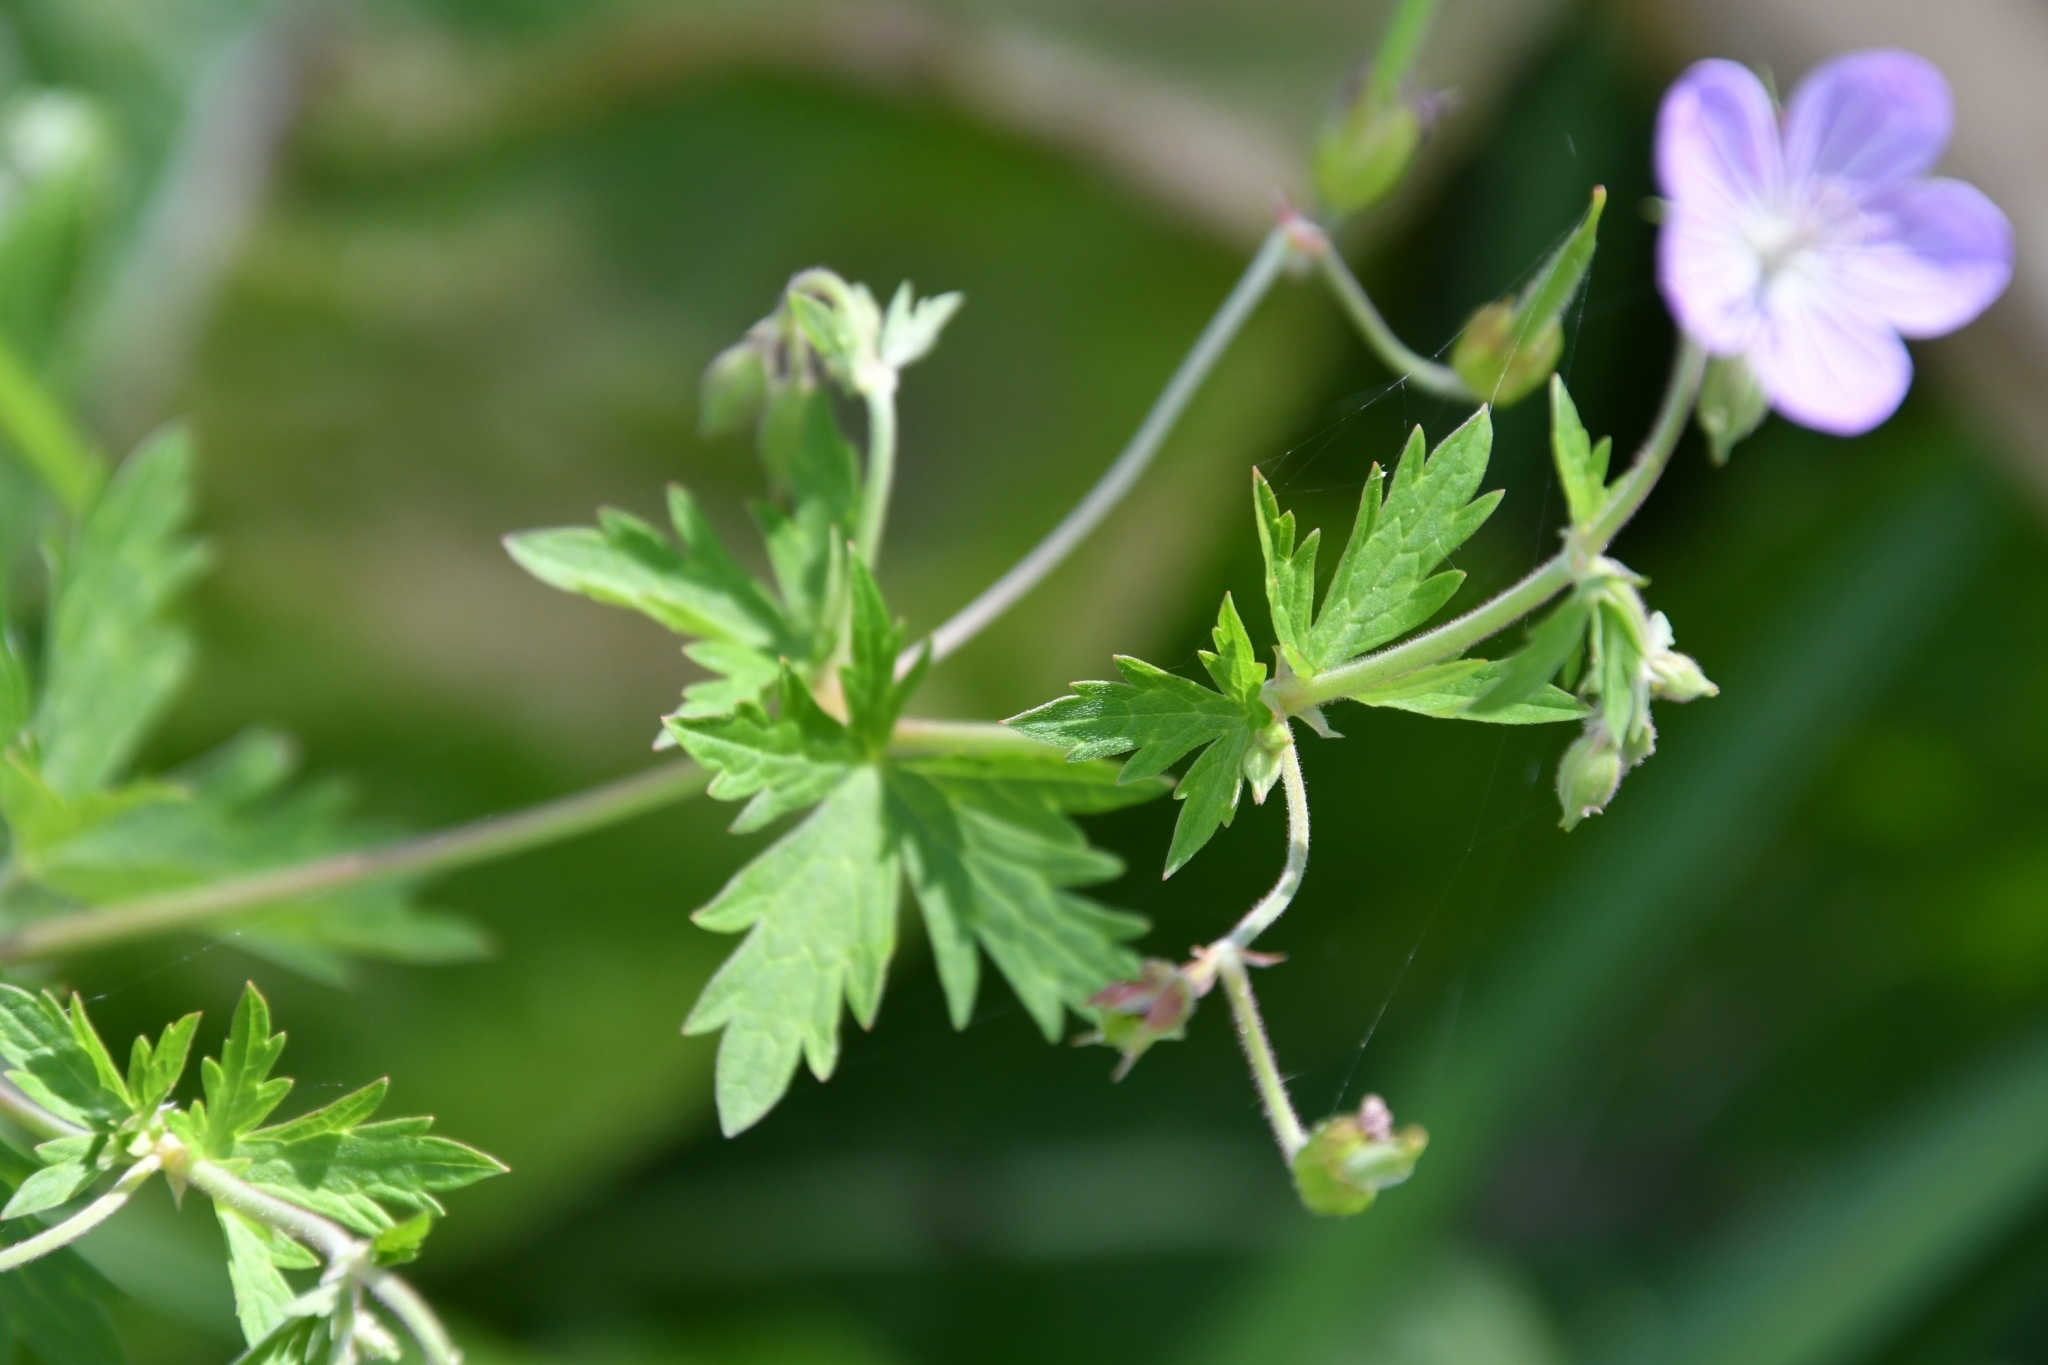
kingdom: Plantae
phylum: Tracheophyta
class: Magnoliopsida
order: Geraniales
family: Geraniaceae
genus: Geranium
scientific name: Geranium collinum
